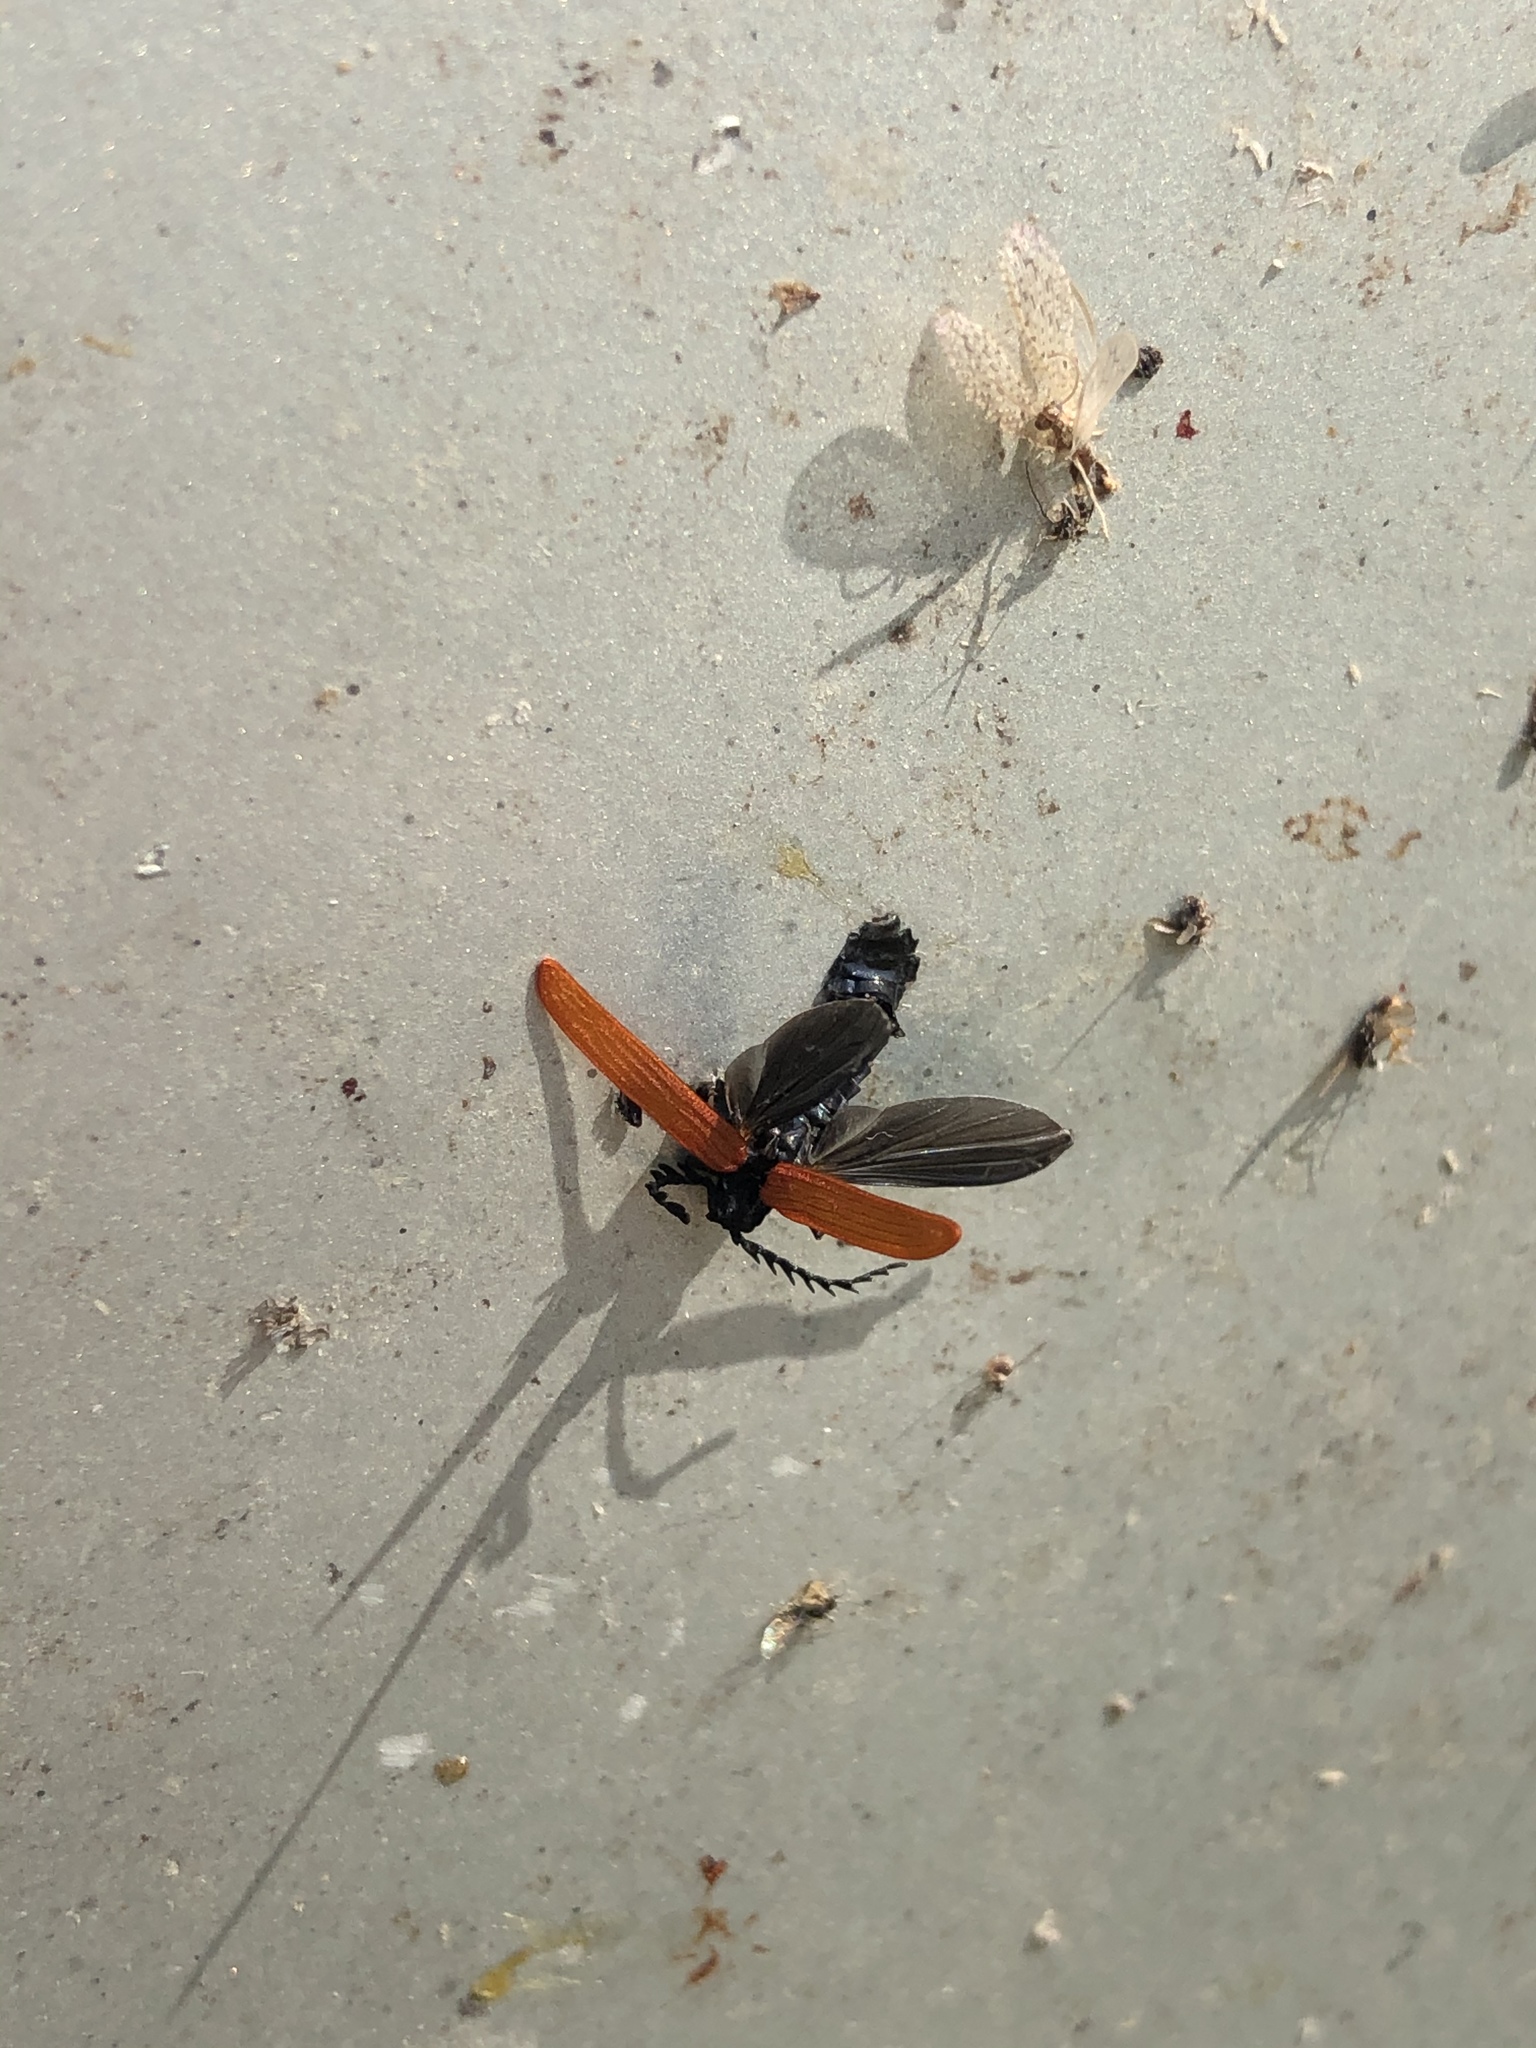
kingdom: Animalia
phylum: Arthropoda
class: Insecta
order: Coleoptera
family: Lycidae
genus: Porrostoma
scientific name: Porrostoma rufipenne
